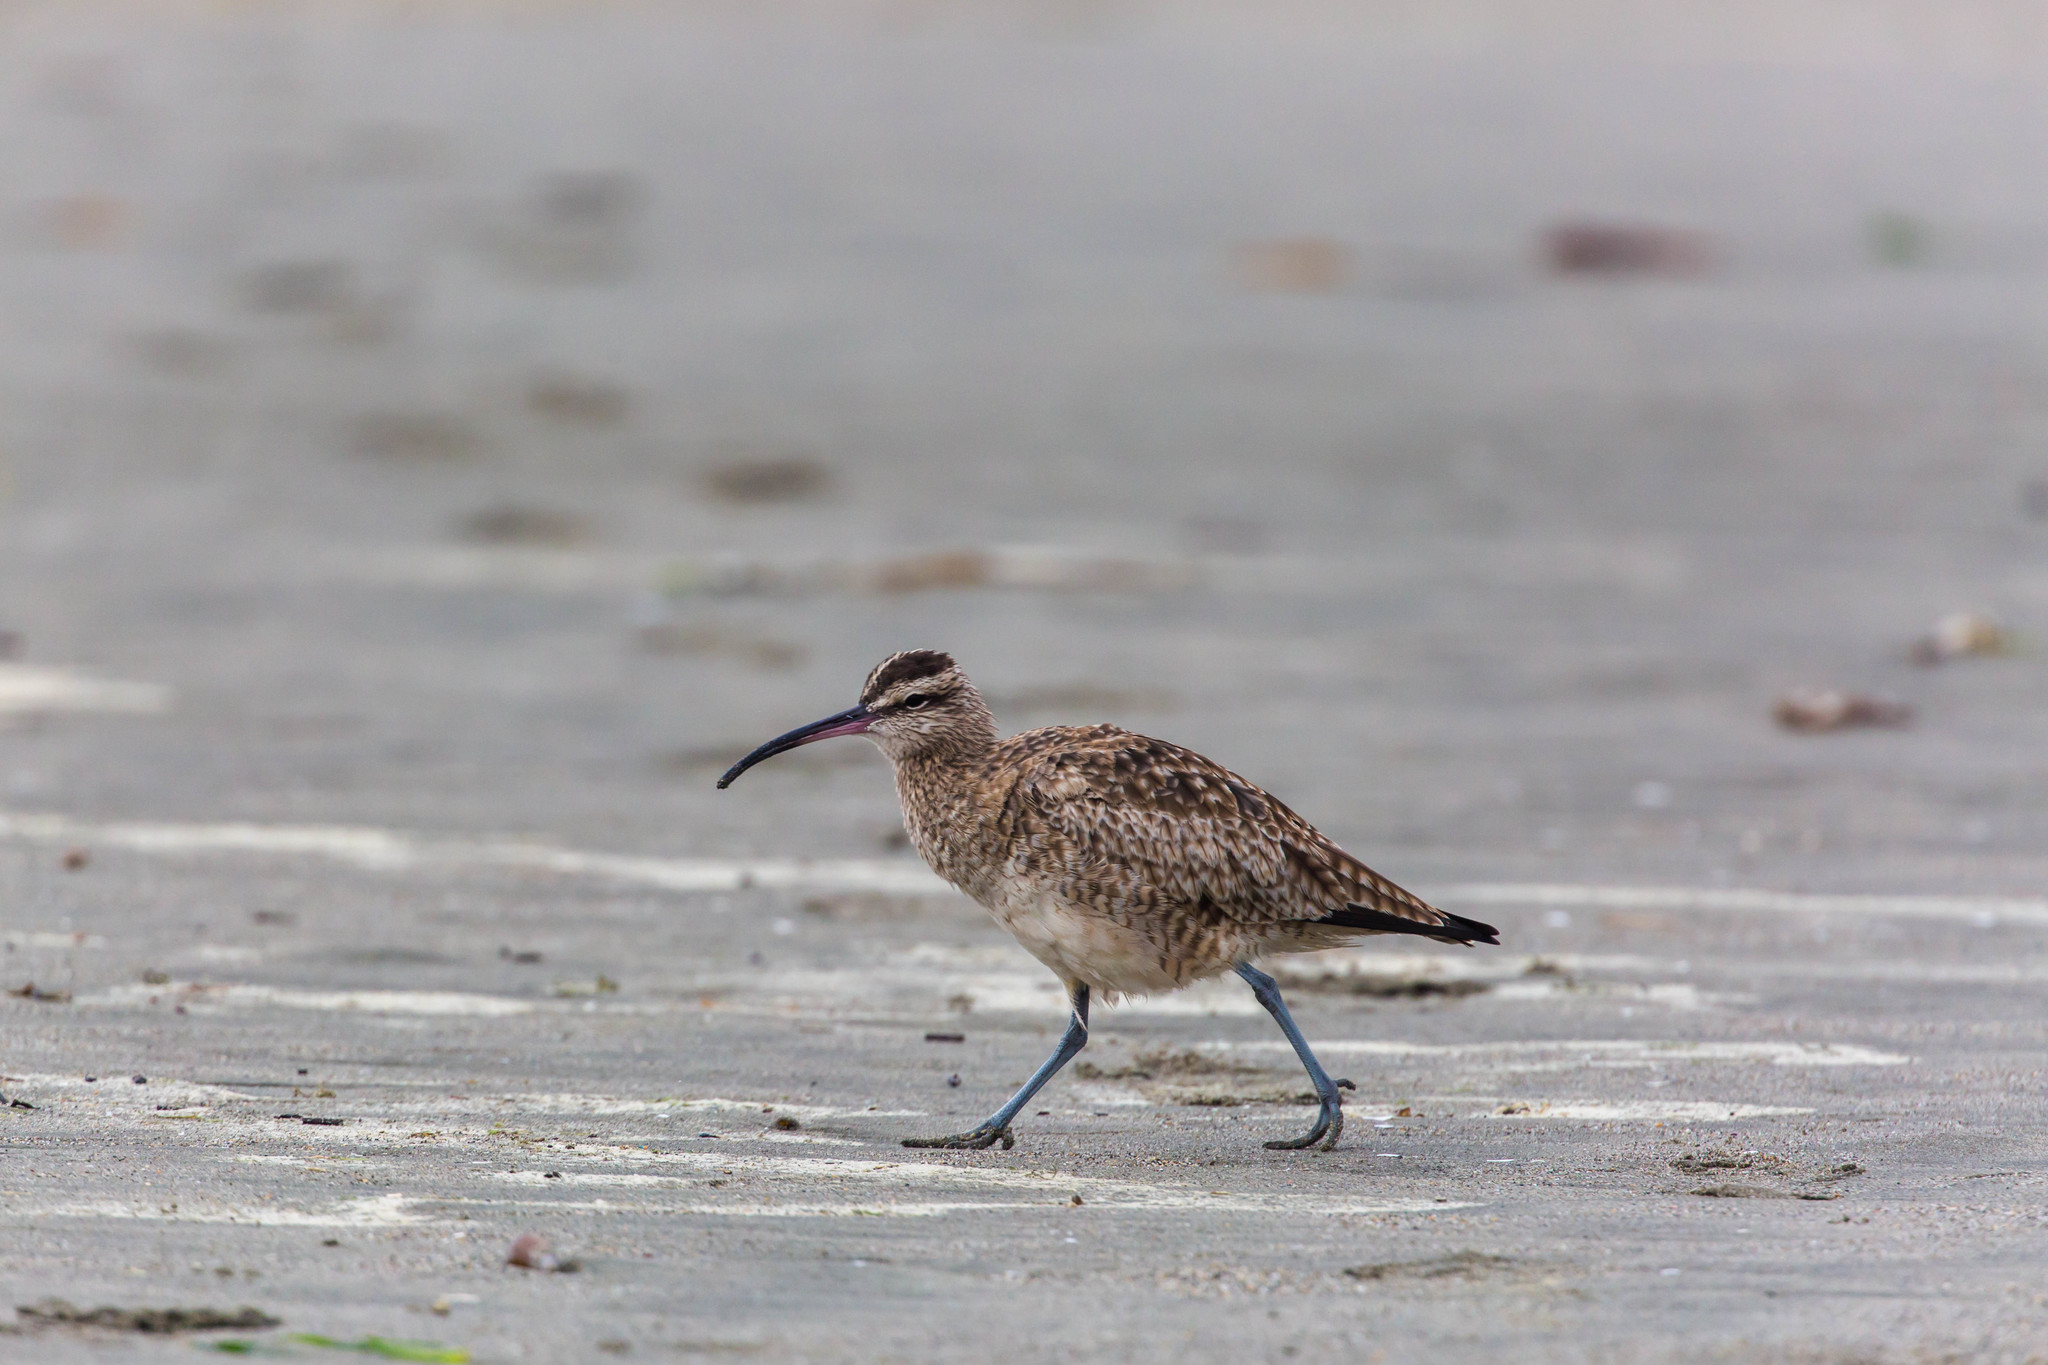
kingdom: Animalia
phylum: Chordata
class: Aves
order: Charadriiformes
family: Scolopacidae
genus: Numenius
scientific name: Numenius phaeopus
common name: Whimbrel
